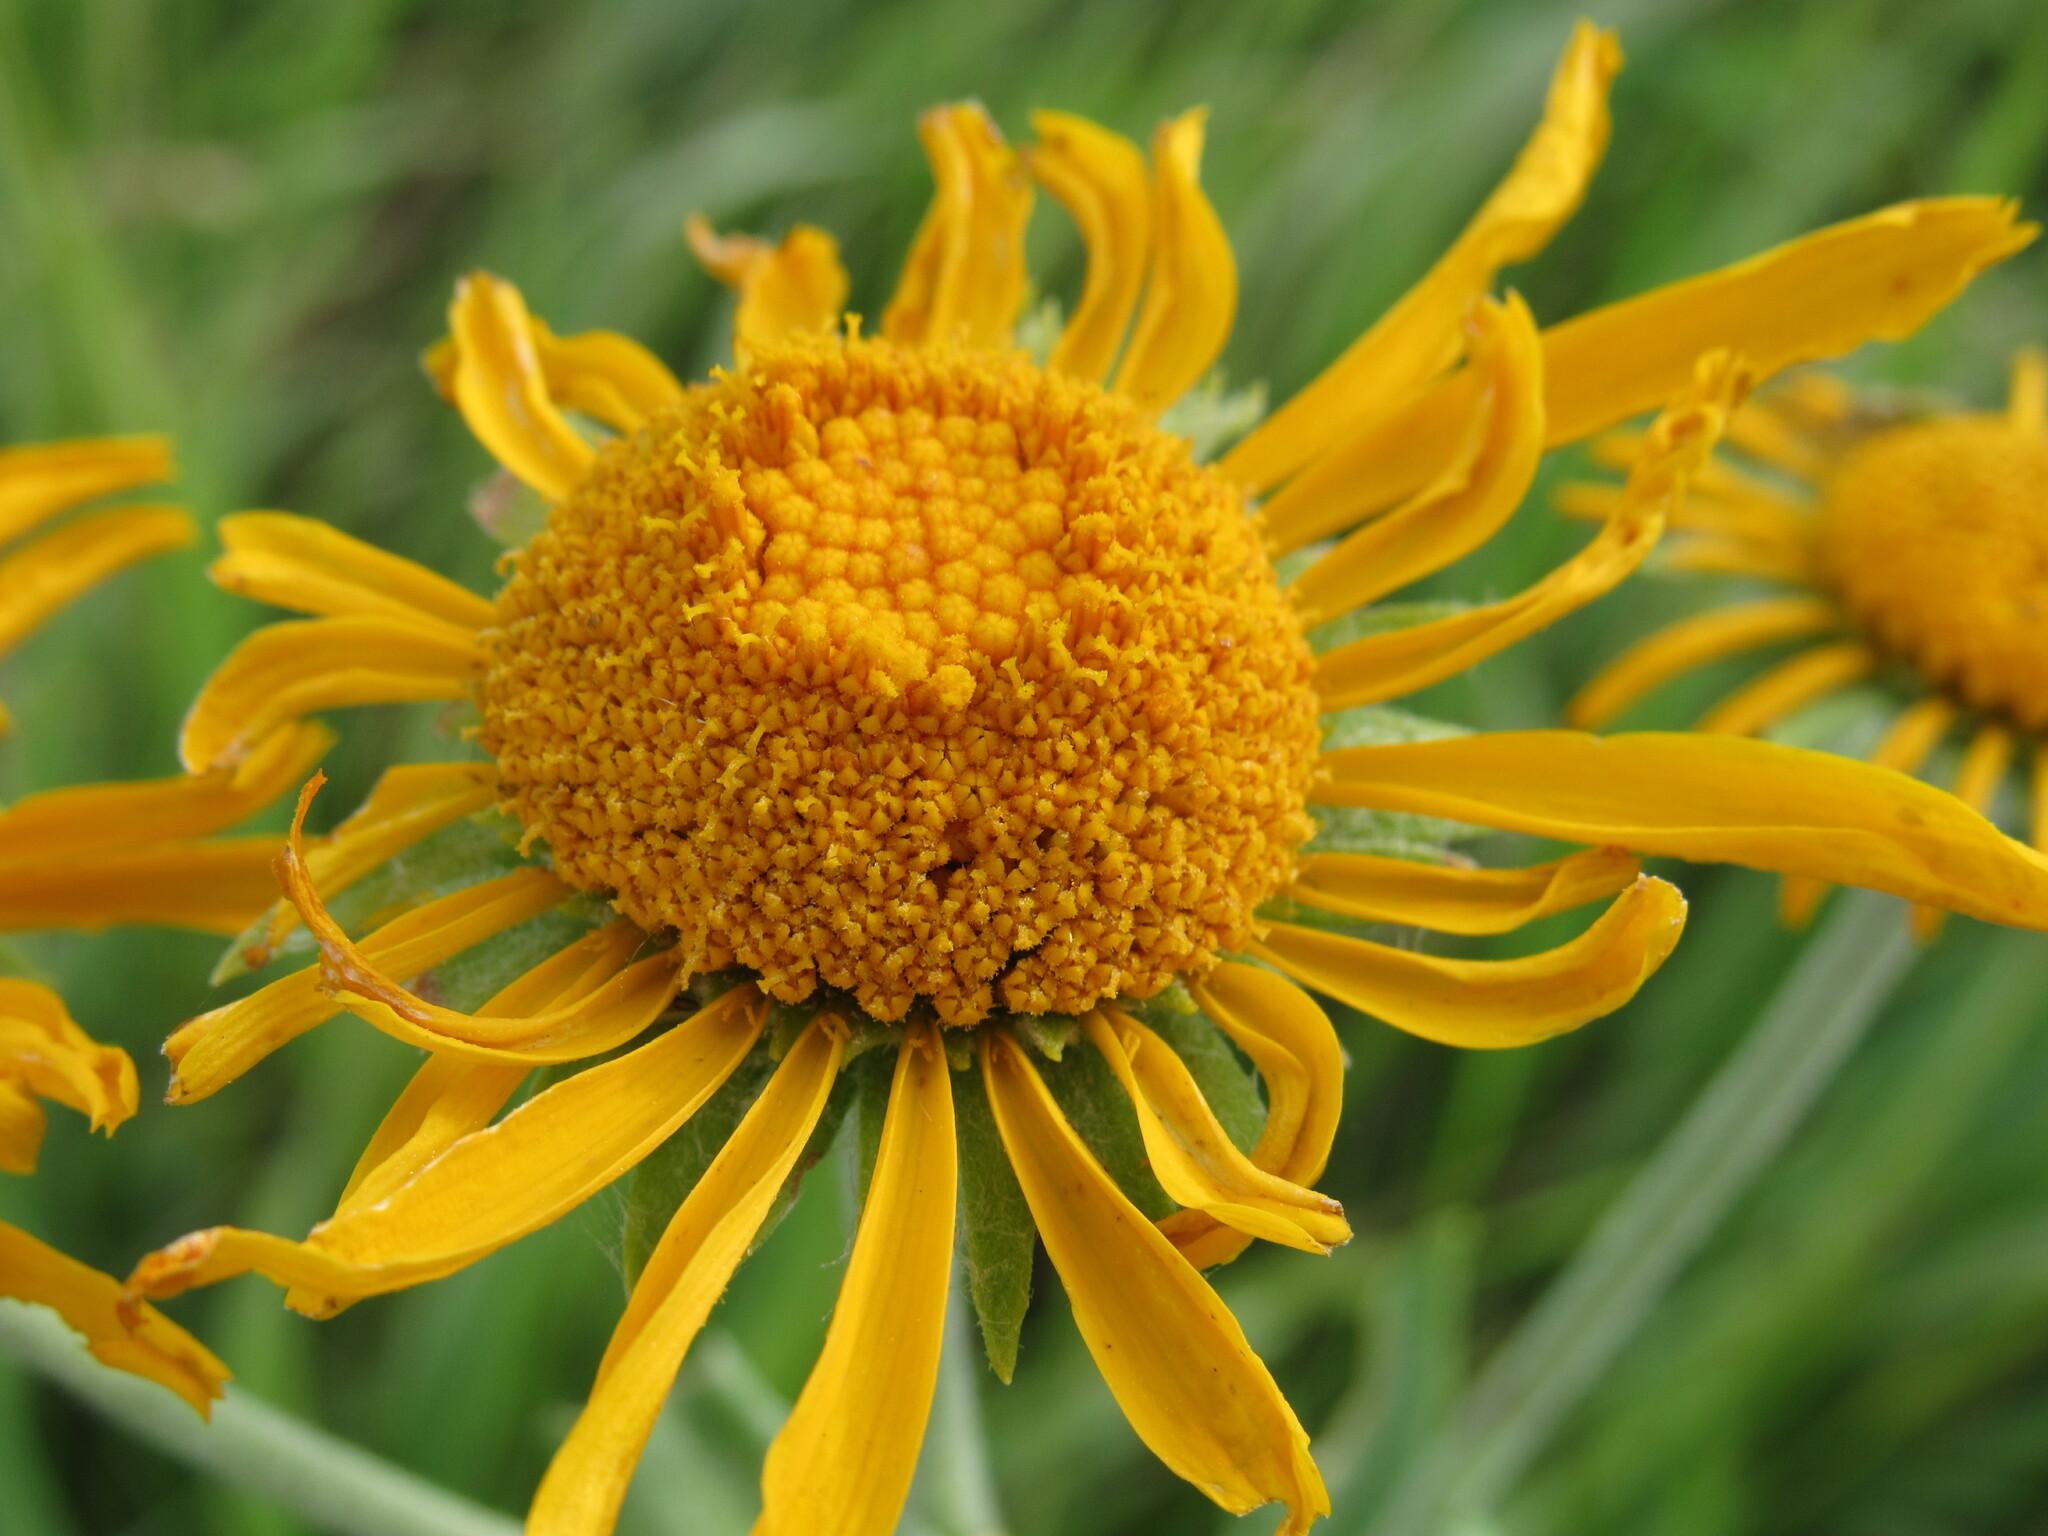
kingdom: Plantae
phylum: Tracheophyta
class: Magnoliopsida
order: Asterales
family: Asteraceae
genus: Hymenoxys
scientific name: Hymenoxys hoopesii
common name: Orange-sneezeweed
